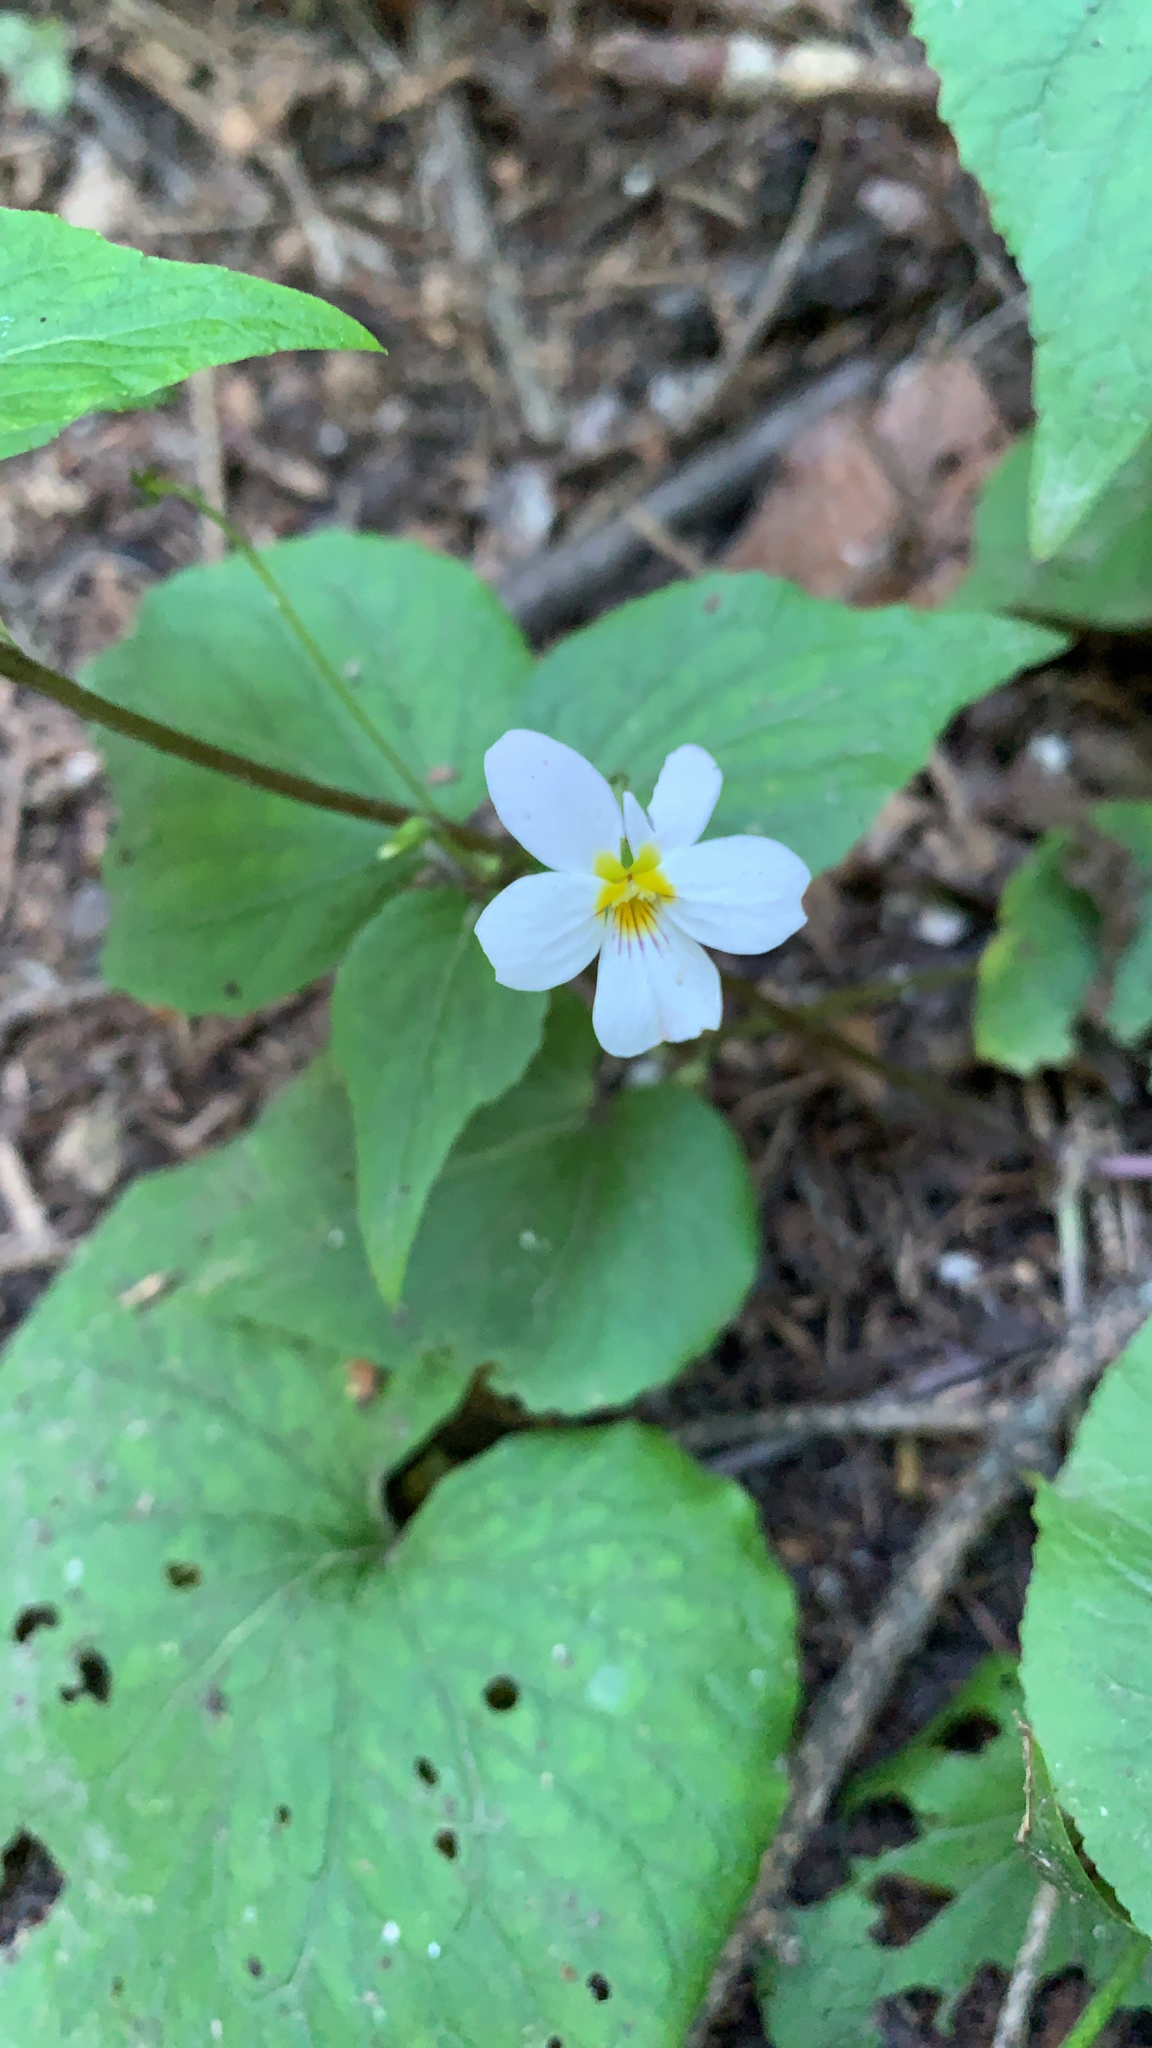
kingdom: Plantae
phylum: Tracheophyta
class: Magnoliopsida
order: Malpighiales
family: Violaceae
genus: Viola
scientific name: Viola canadensis
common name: Canada violet
